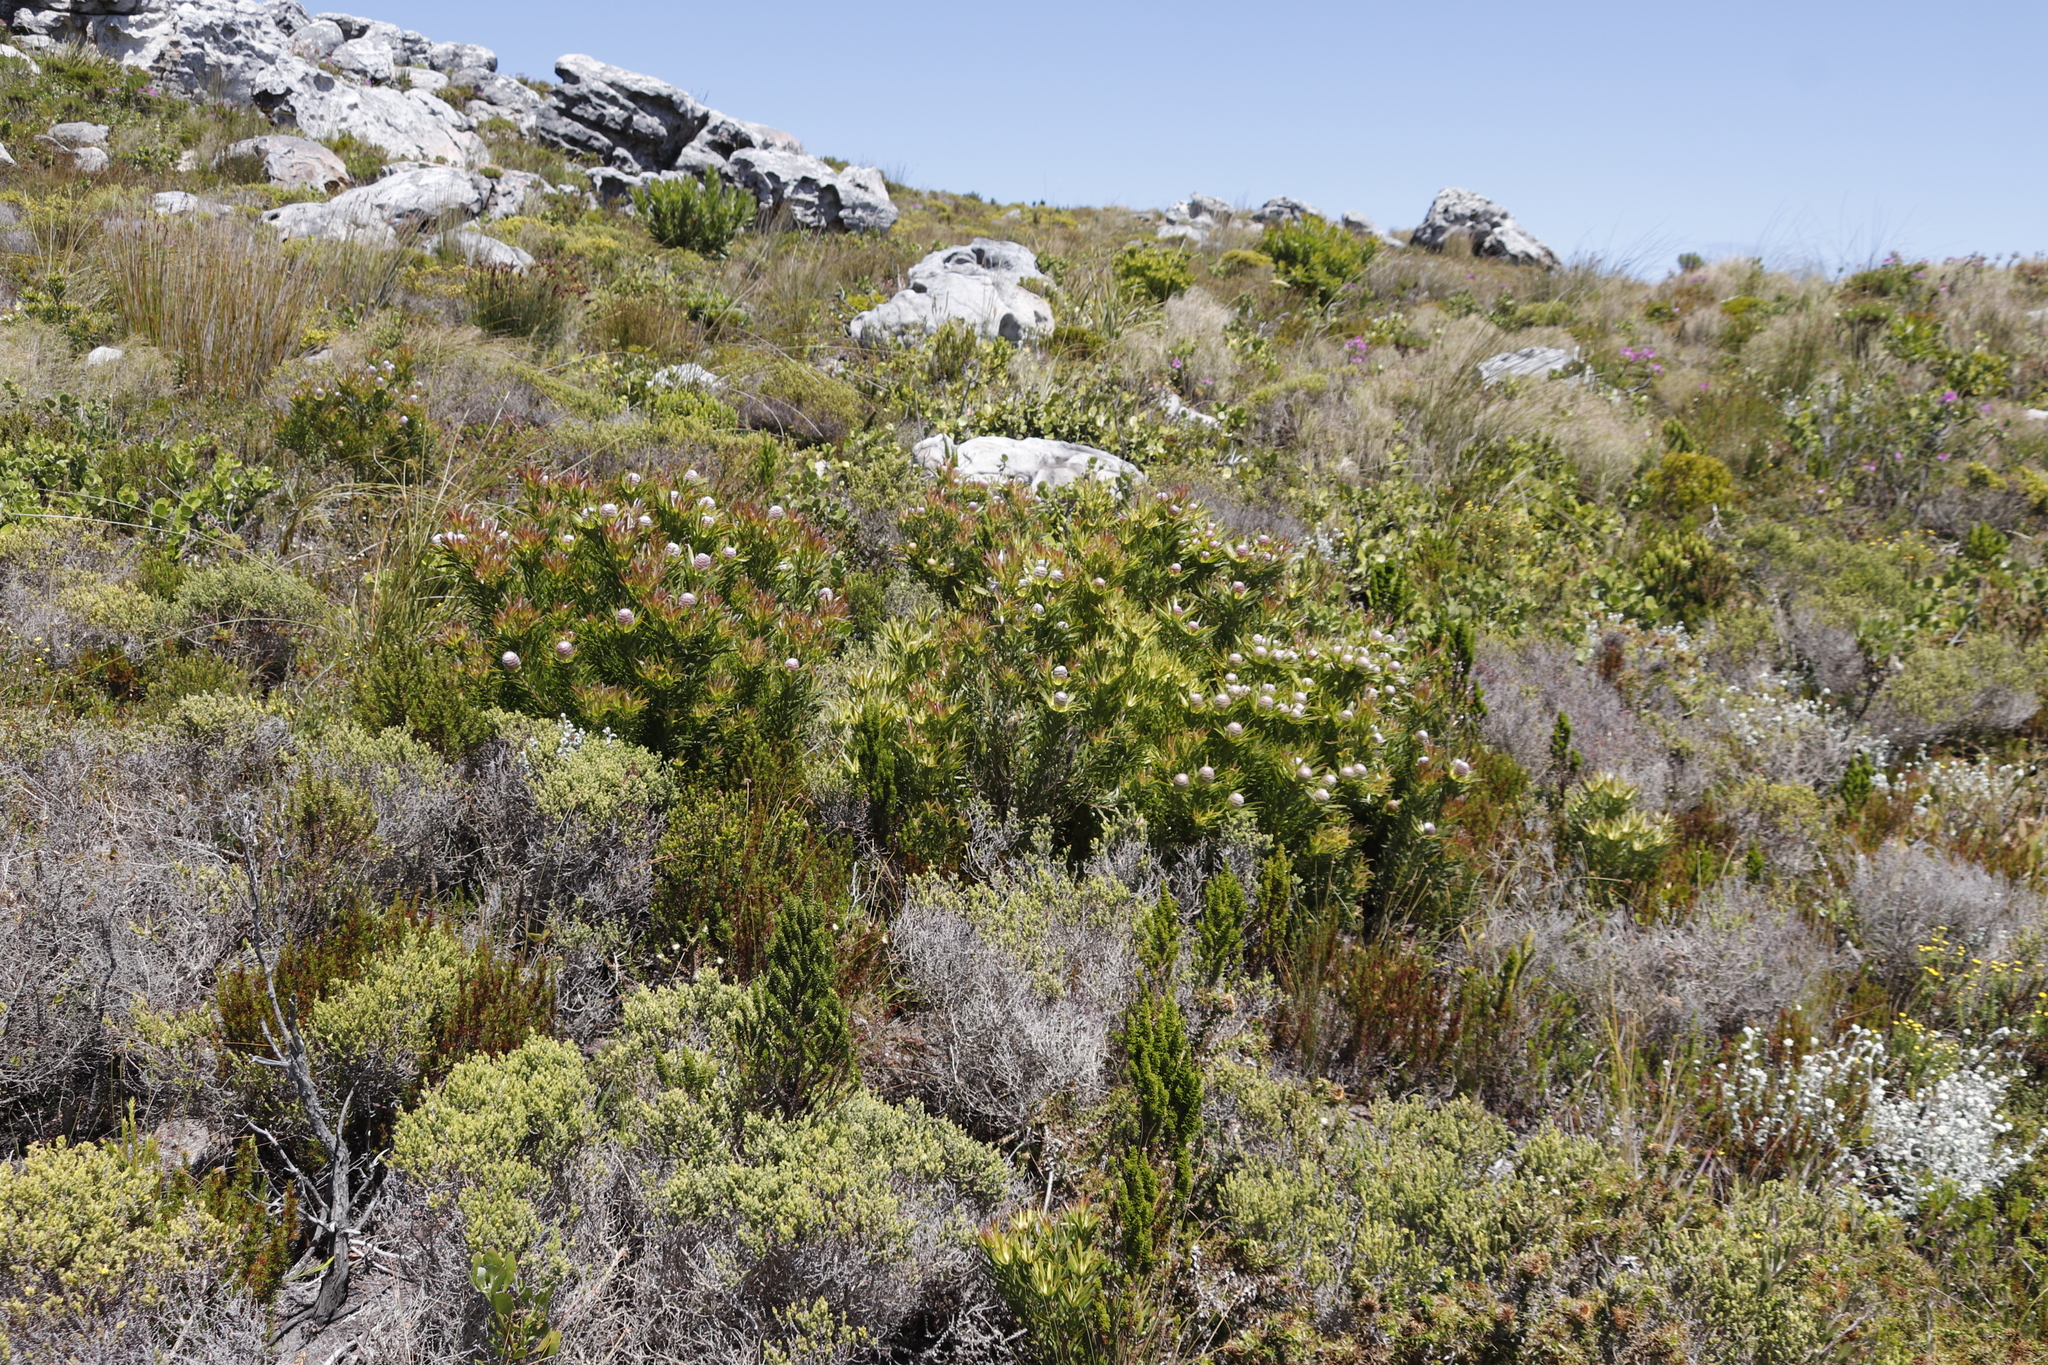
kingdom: Plantae
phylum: Tracheophyta
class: Magnoliopsida
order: Proteales
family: Proteaceae
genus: Leucadendron
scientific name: Leucadendron xanthoconus
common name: Sickle-leaf conebush
